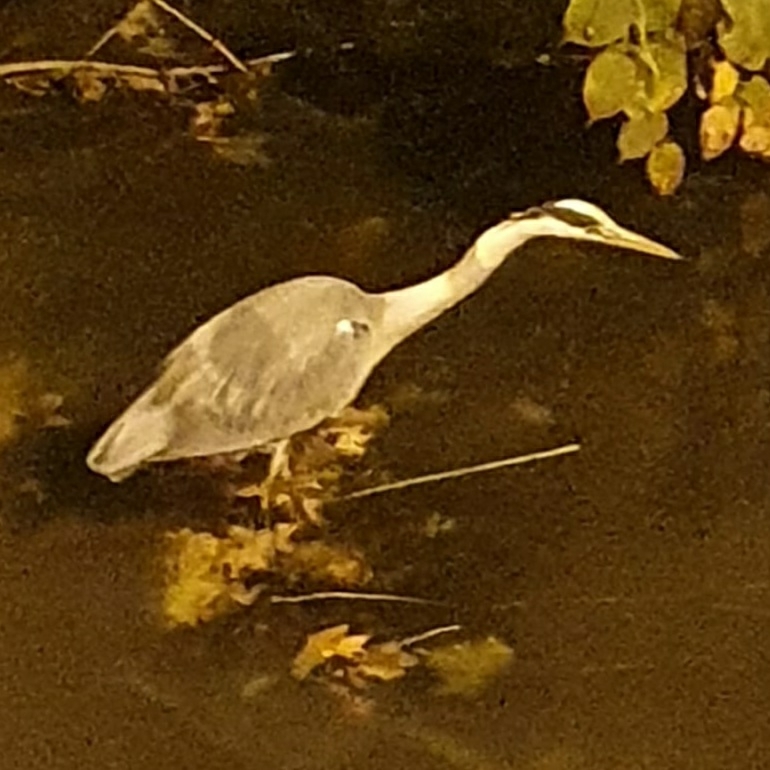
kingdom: Animalia
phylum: Chordata
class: Aves
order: Pelecaniformes
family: Ardeidae
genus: Ardea
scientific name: Ardea cinerea
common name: Grey heron
